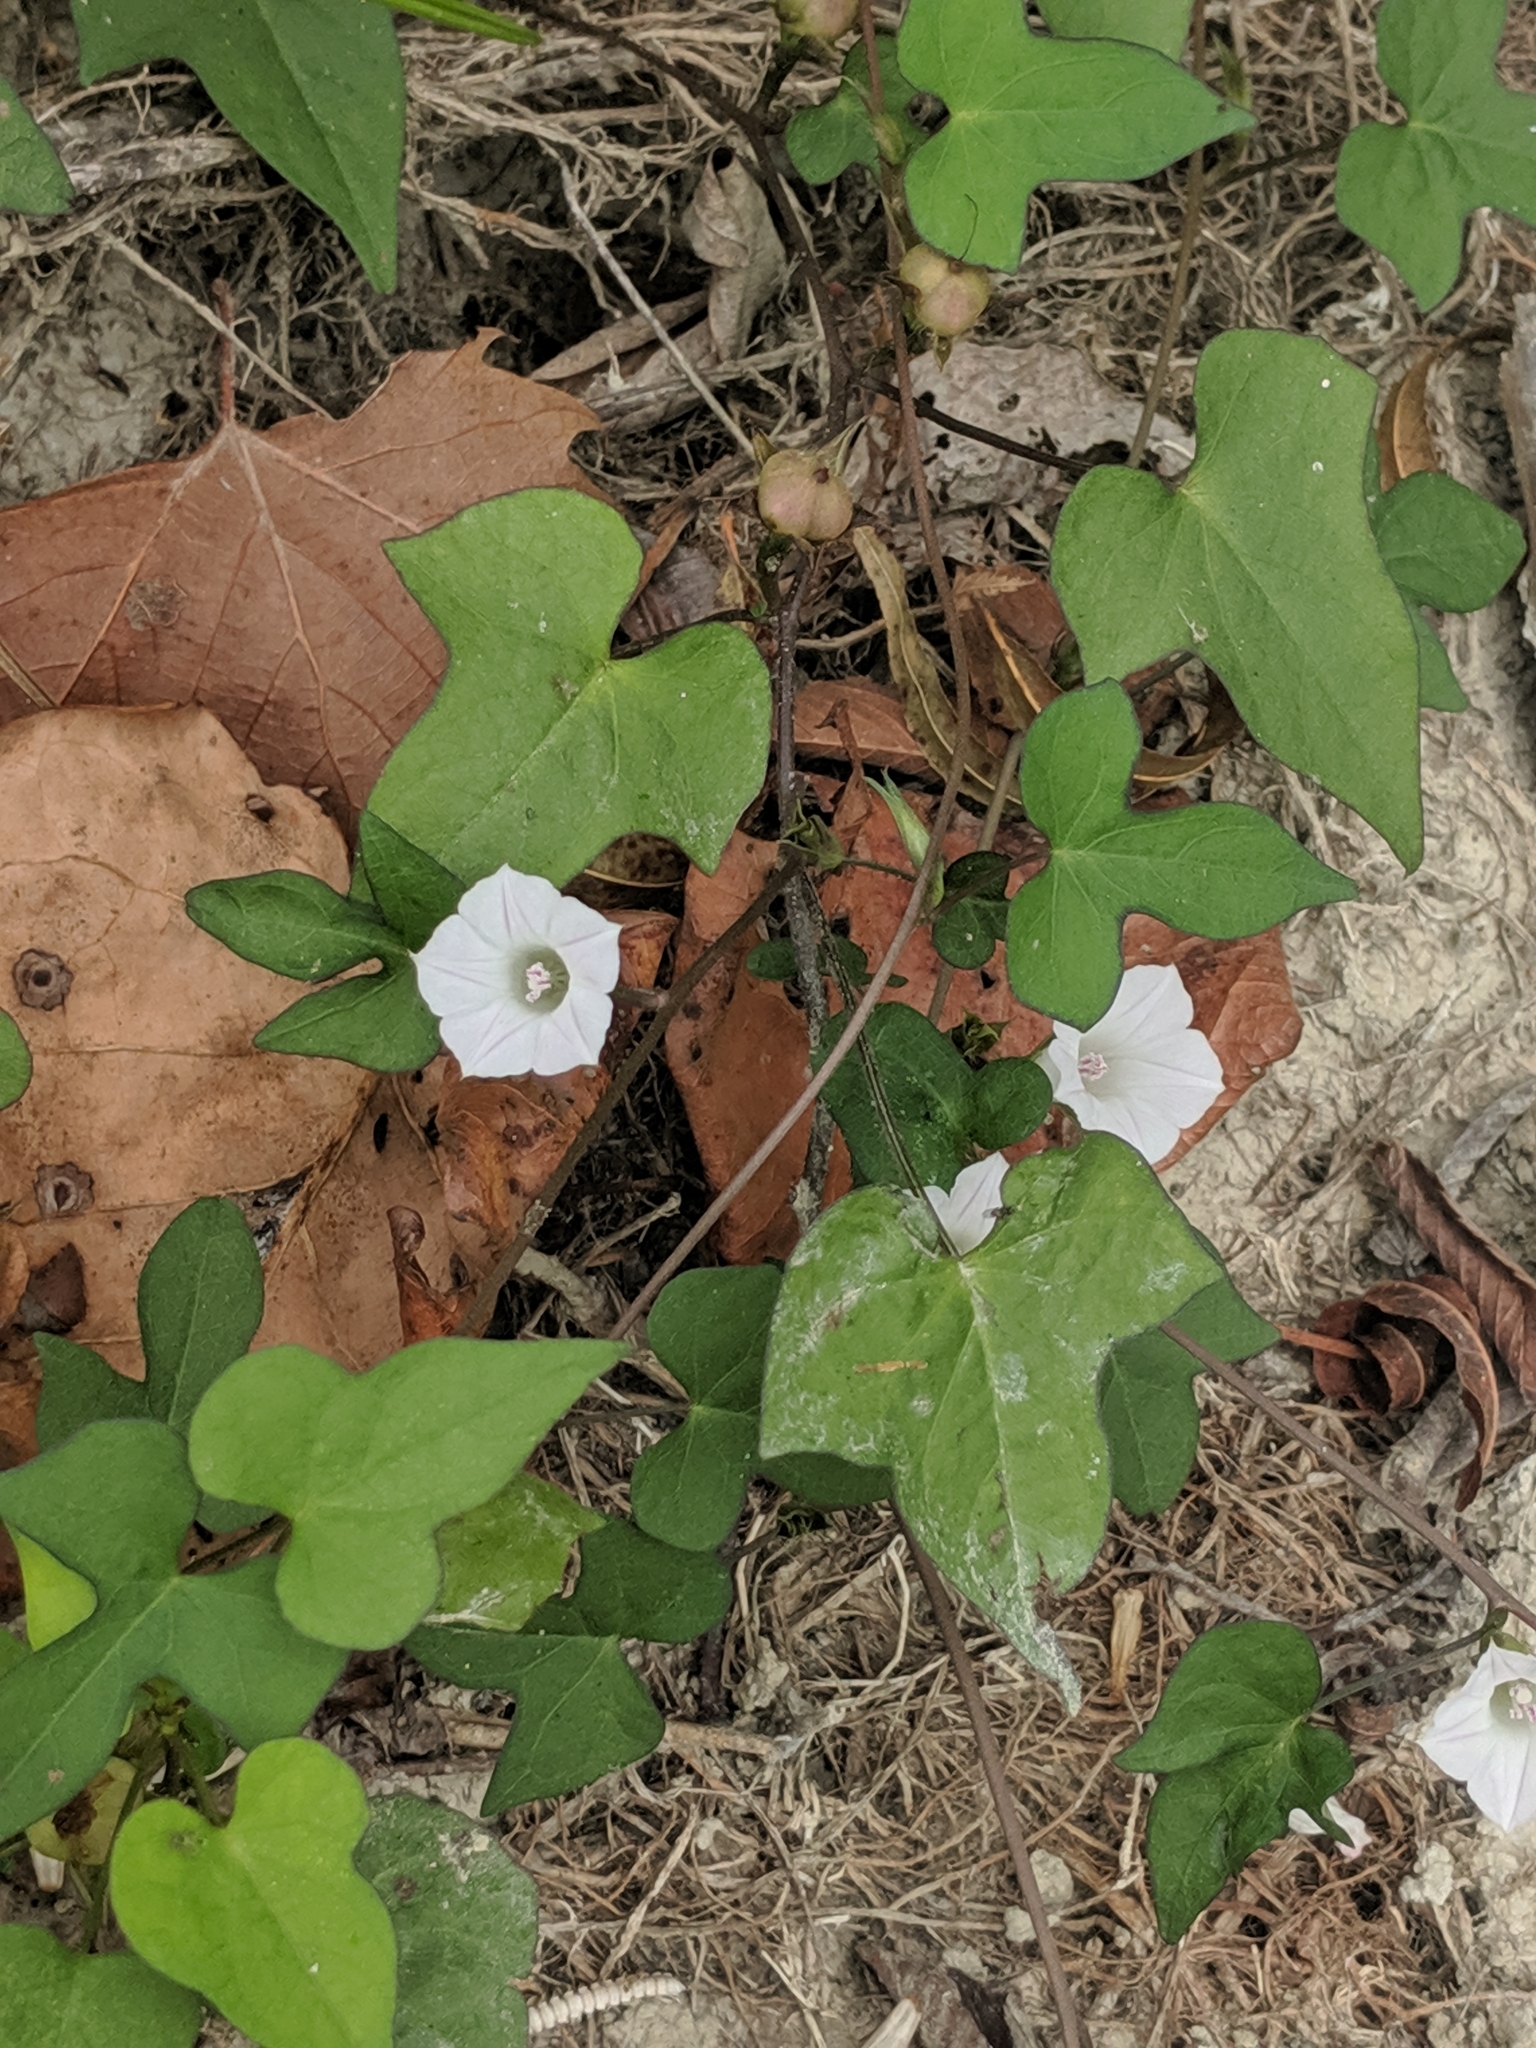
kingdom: Plantae
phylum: Tracheophyta
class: Magnoliopsida
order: Solanales
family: Convolvulaceae
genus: Ipomoea
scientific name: Ipomoea lacunosa
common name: White morning-glory
